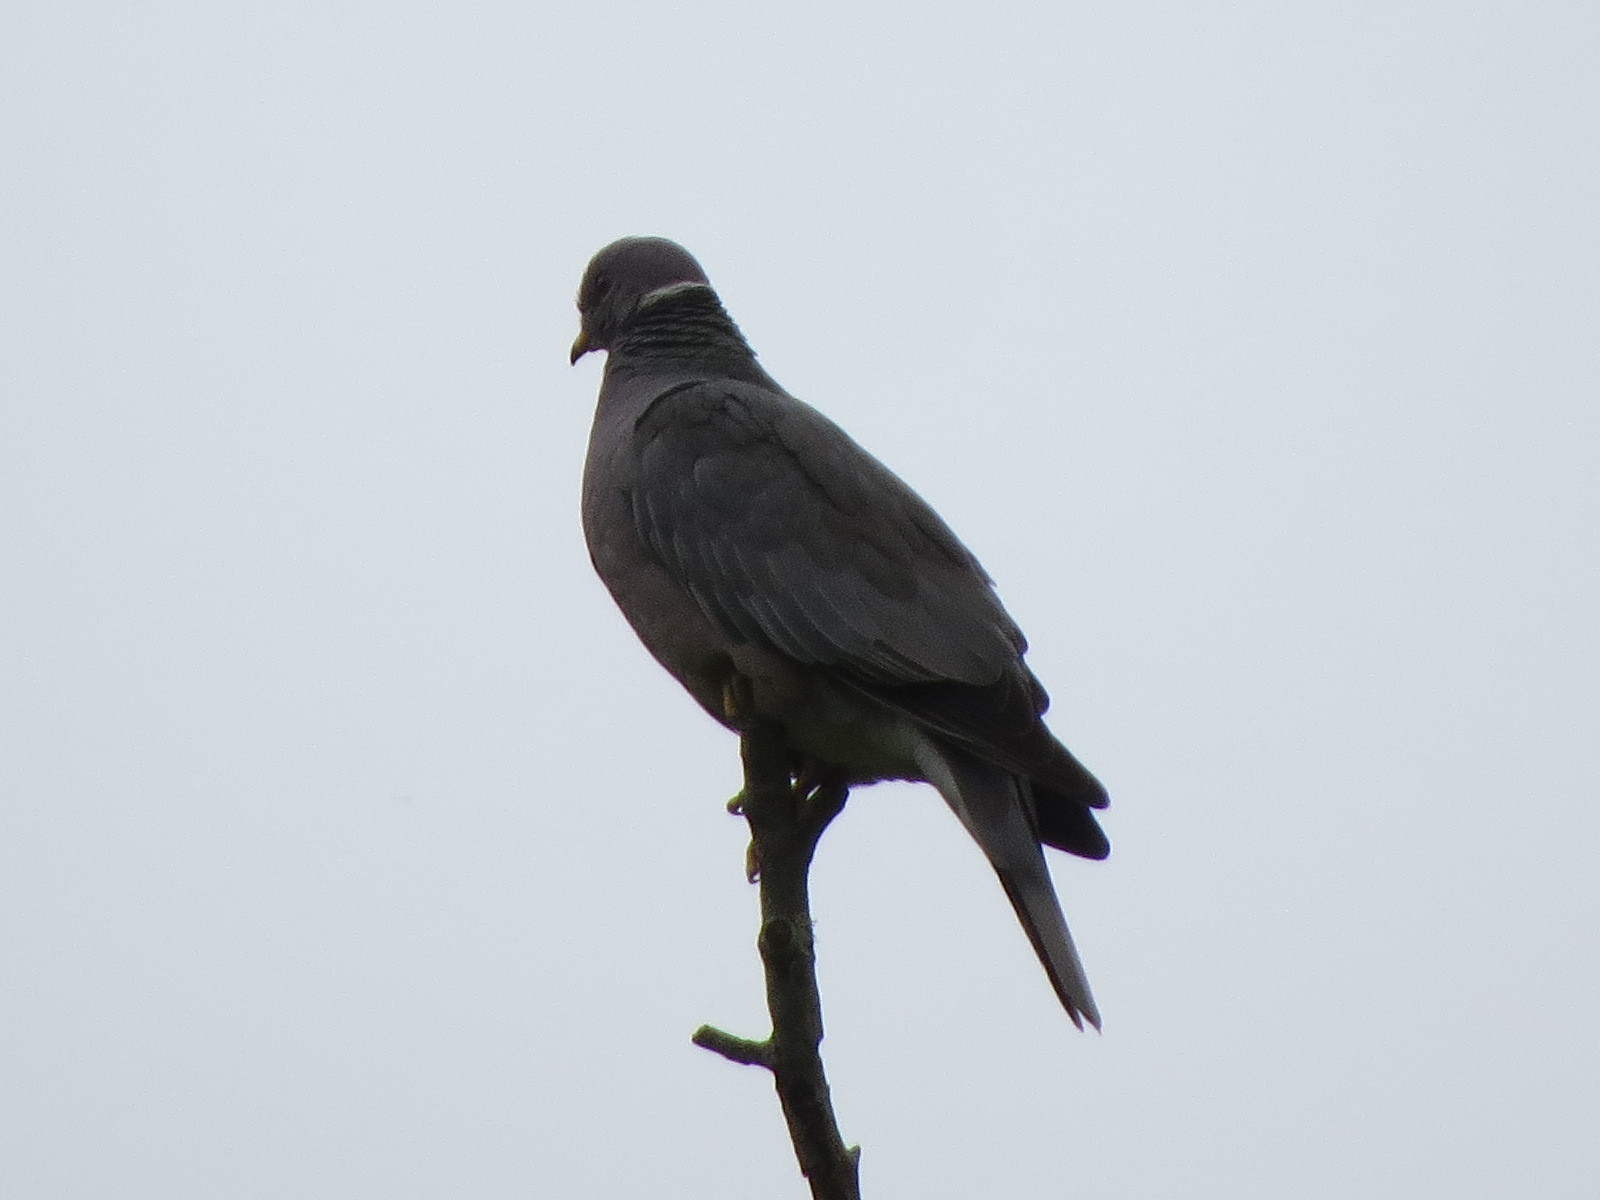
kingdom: Animalia
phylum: Chordata
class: Aves
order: Columbiformes
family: Columbidae
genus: Patagioenas
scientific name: Patagioenas fasciata
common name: Band-tailed pigeon
